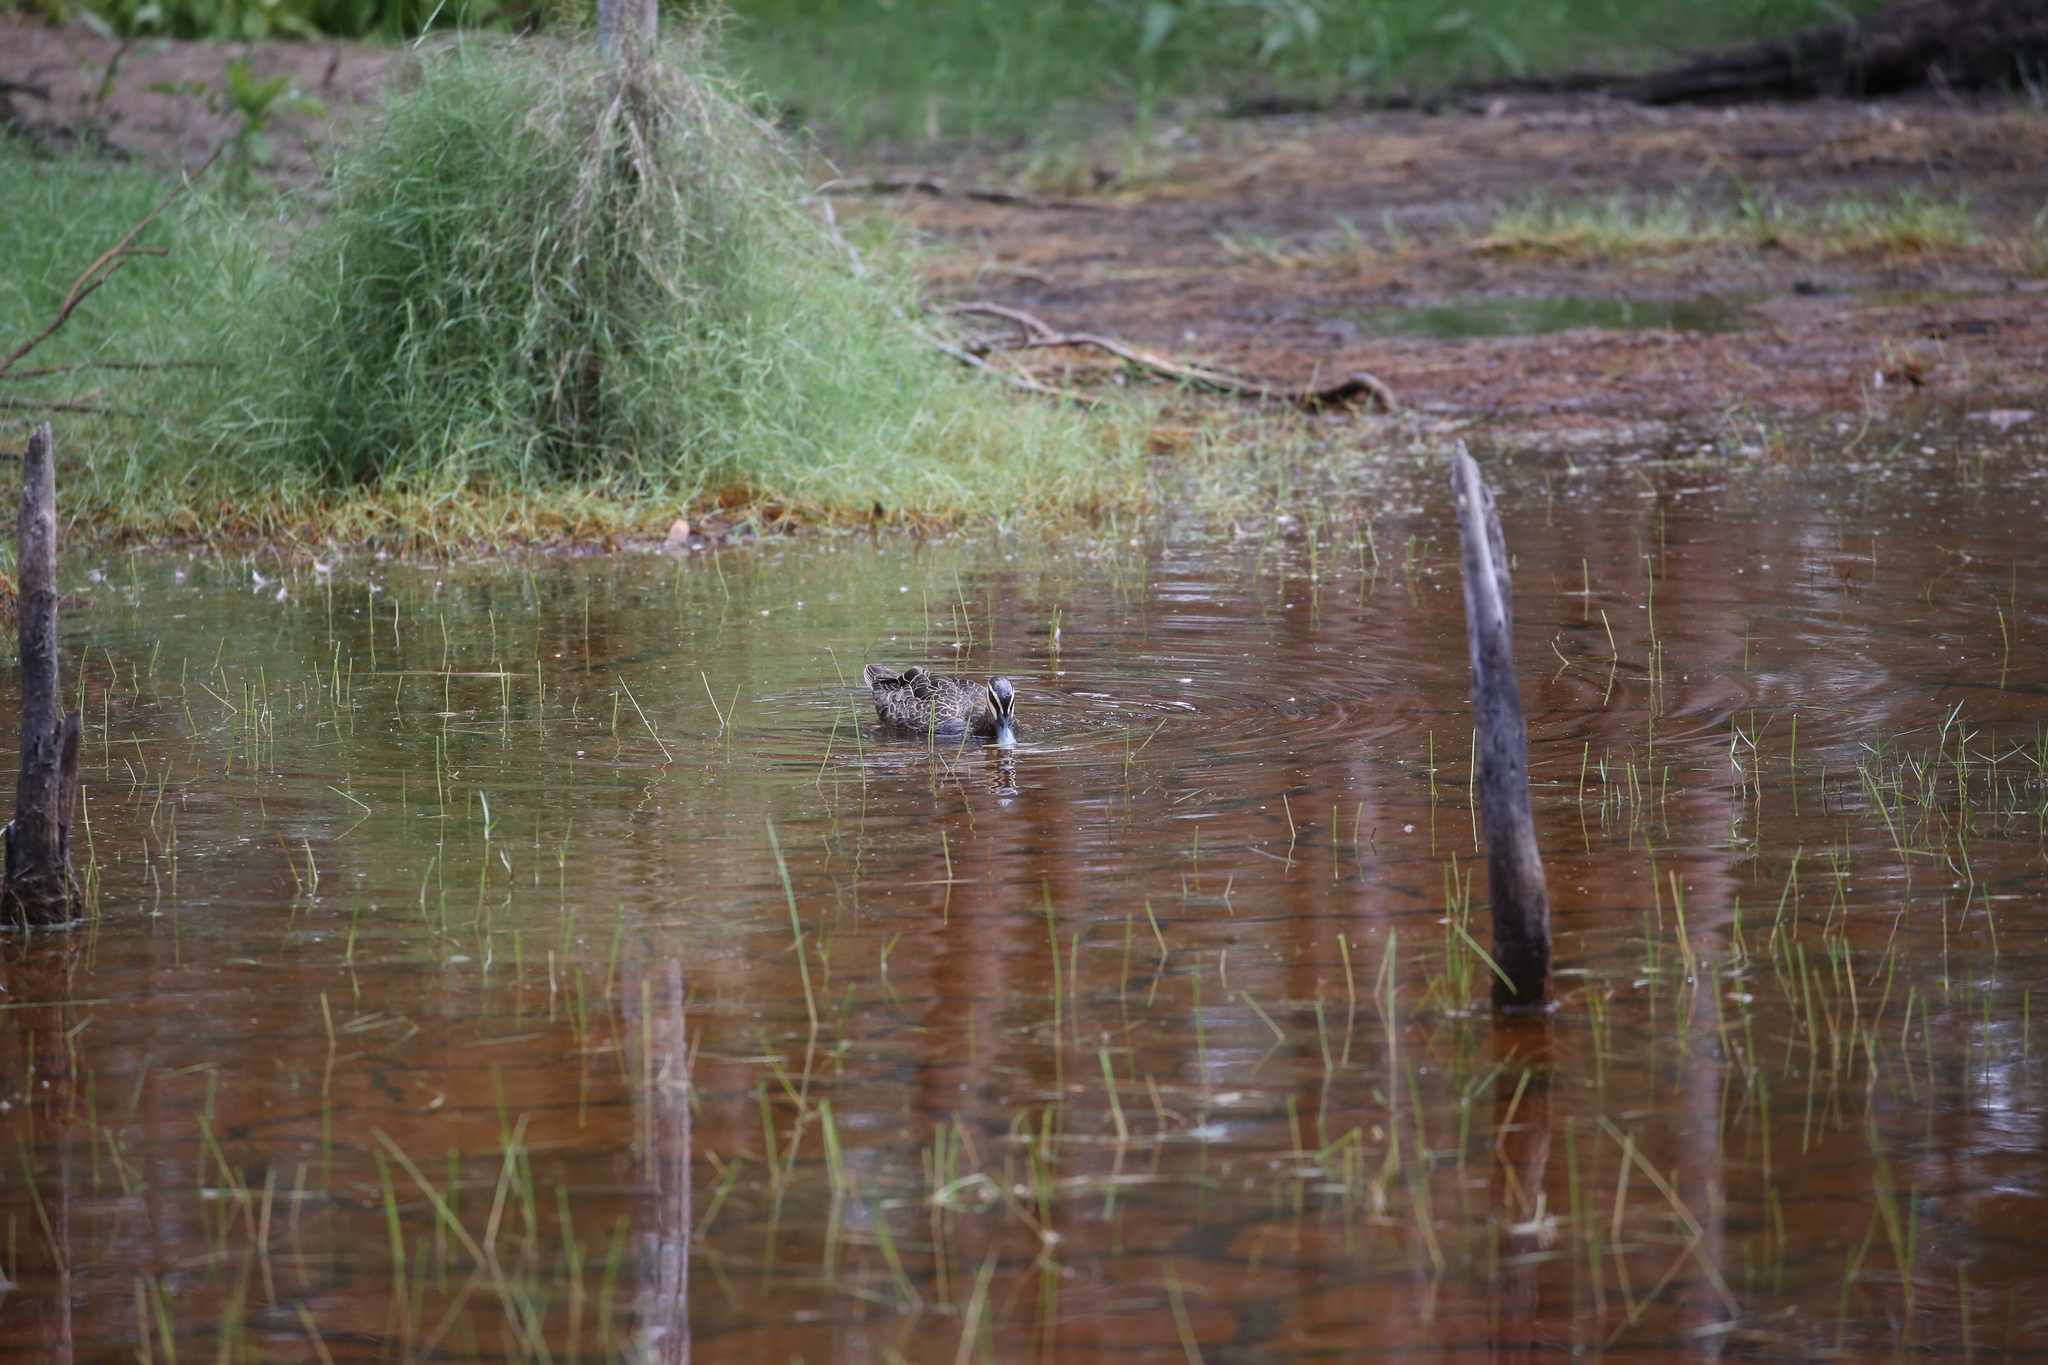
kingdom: Animalia
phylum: Chordata
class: Aves
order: Anseriformes
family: Anatidae
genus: Anas
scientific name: Anas superciliosa
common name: Pacific black duck
